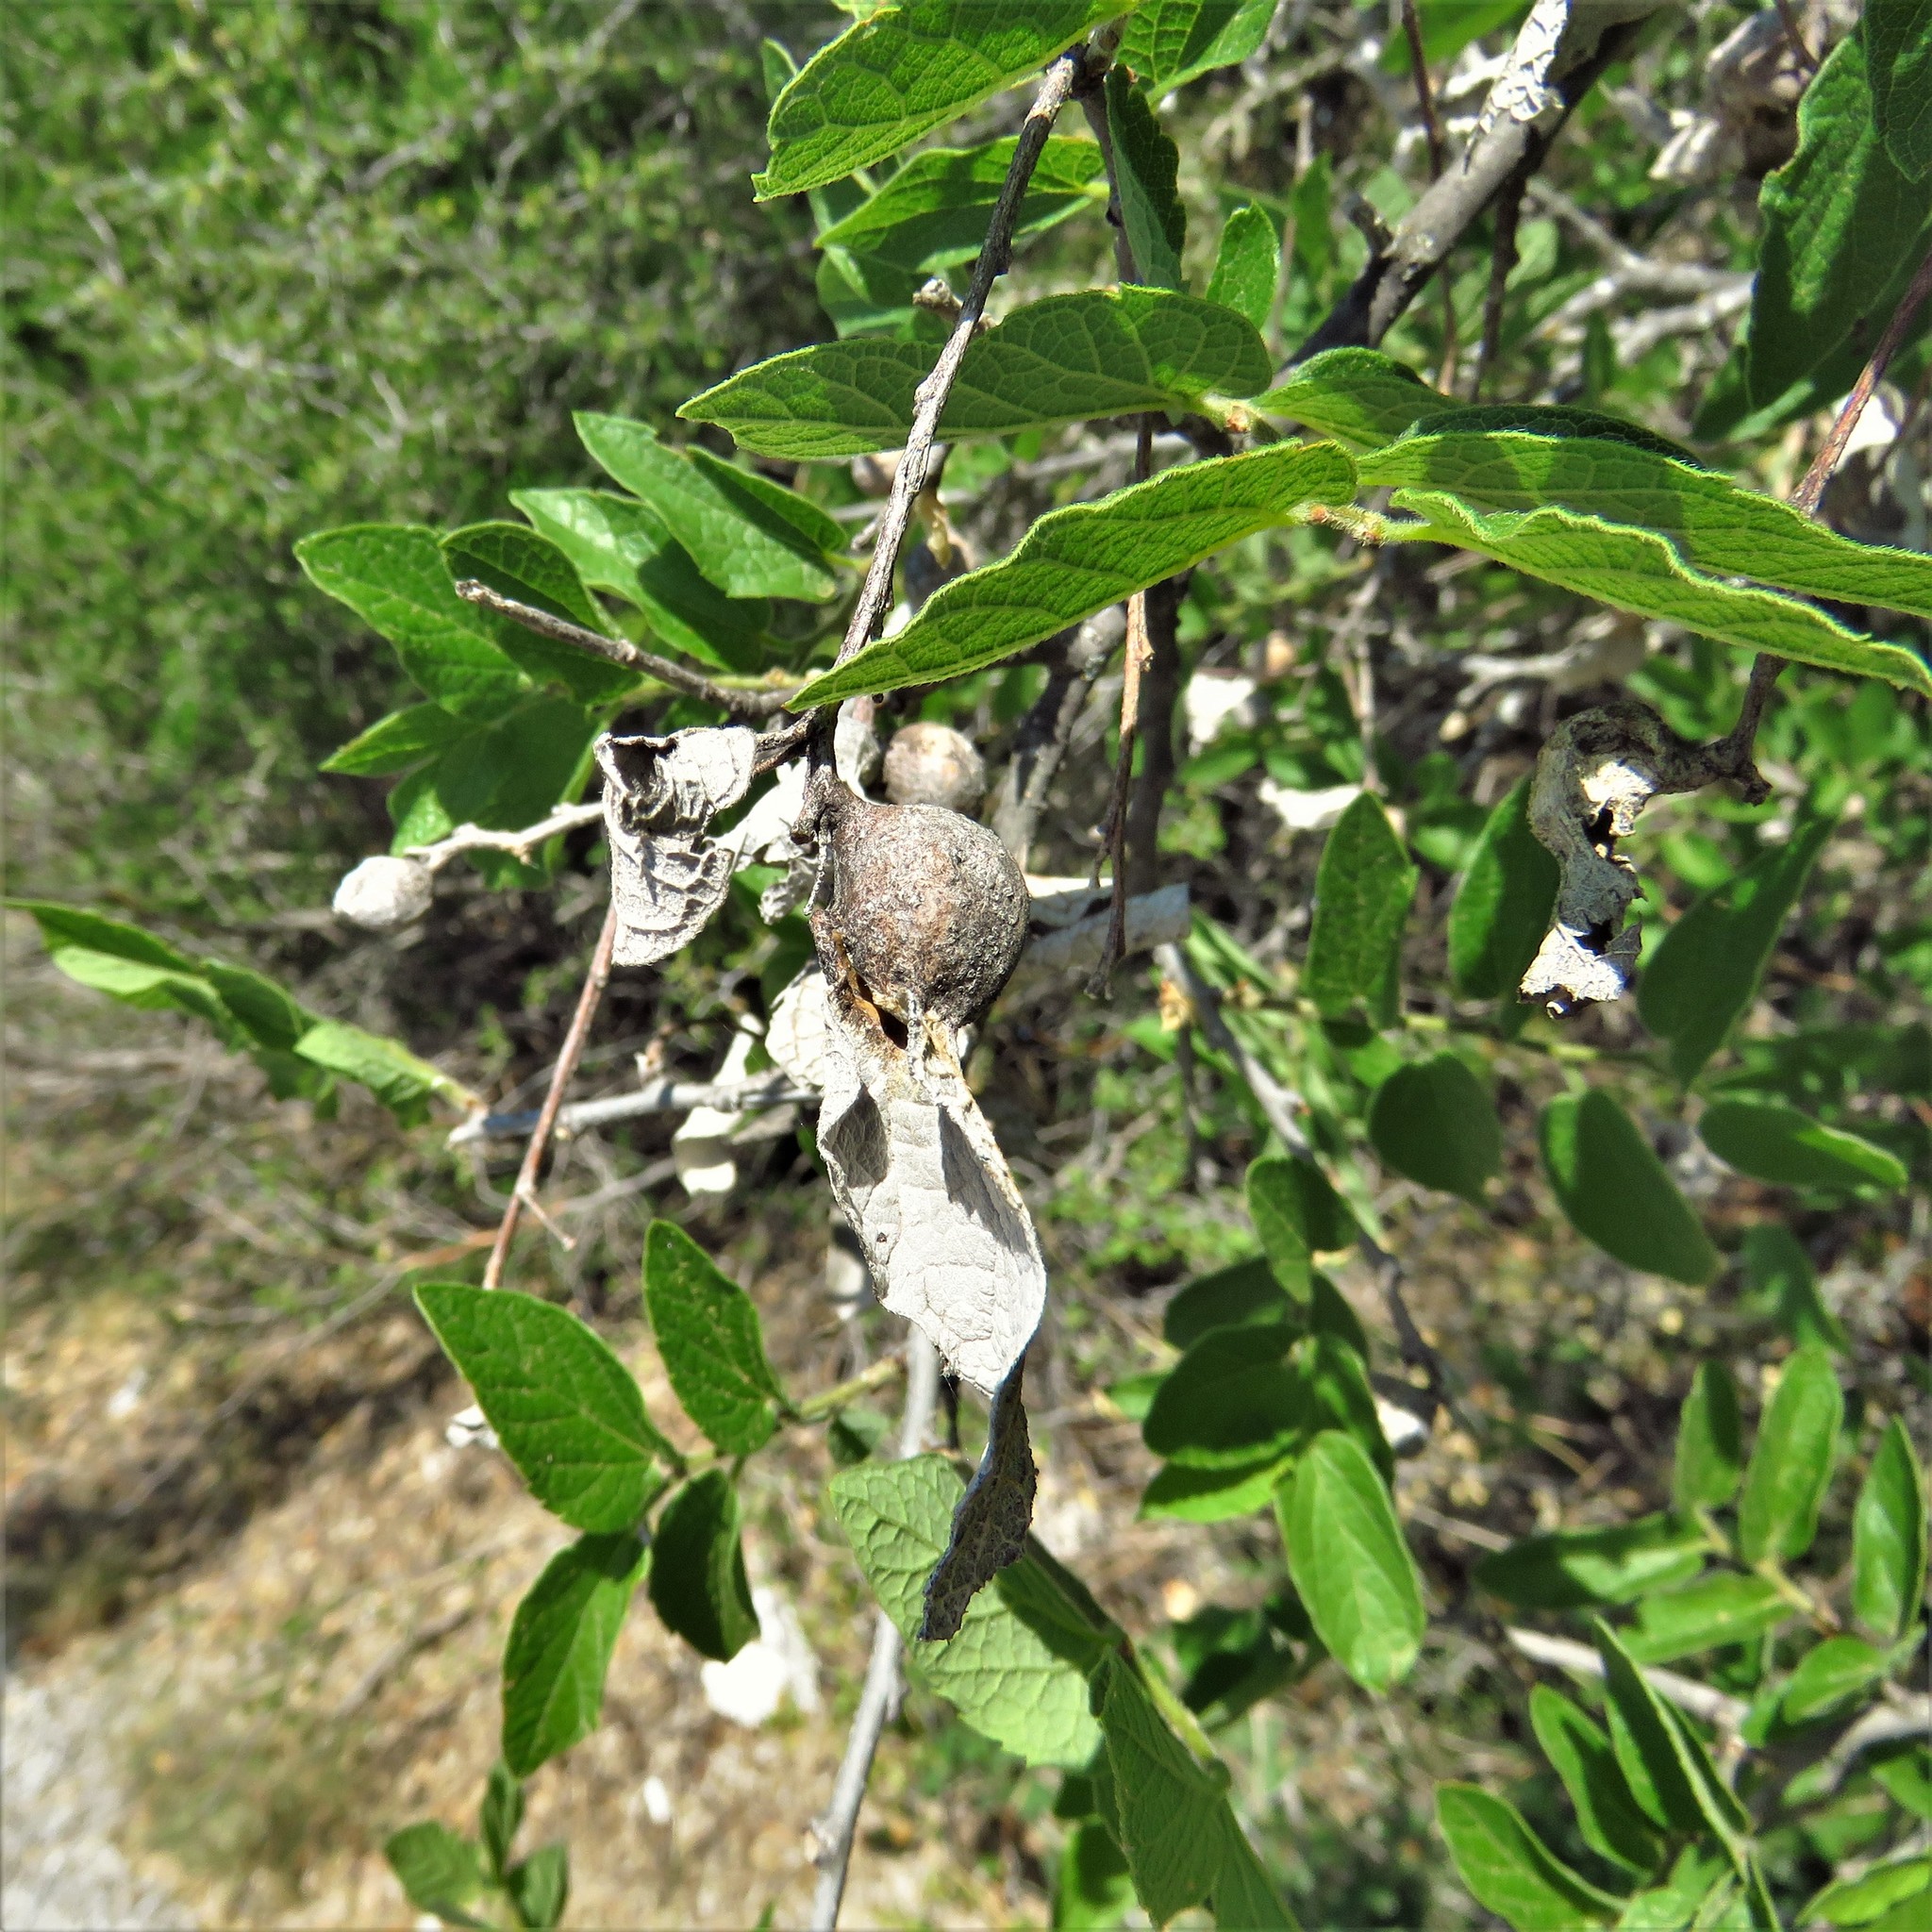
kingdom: Animalia
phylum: Arthropoda
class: Insecta
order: Hemiptera
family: Aphalaridae
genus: Pachypsylla
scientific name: Pachypsylla venusta
